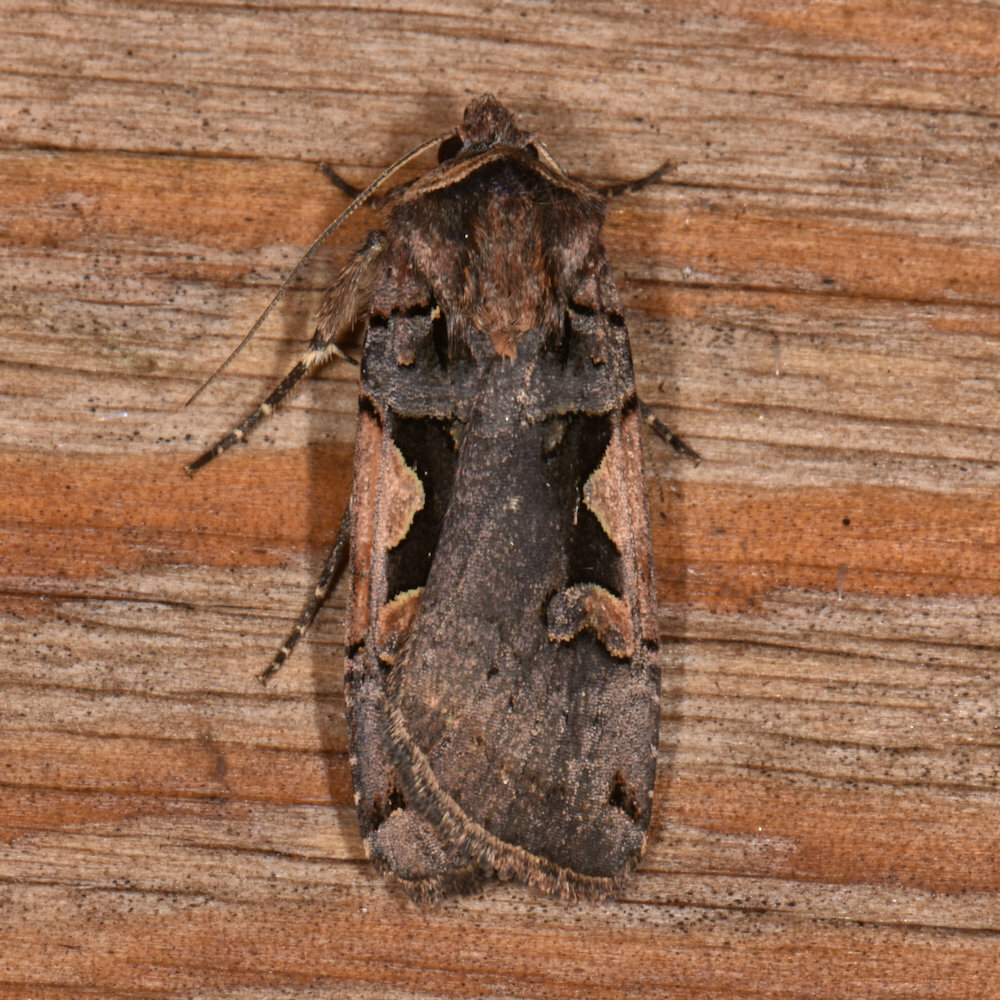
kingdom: Animalia
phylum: Arthropoda
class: Insecta
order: Lepidoptera
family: Noctuidae
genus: Xestia
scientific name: Xestia
